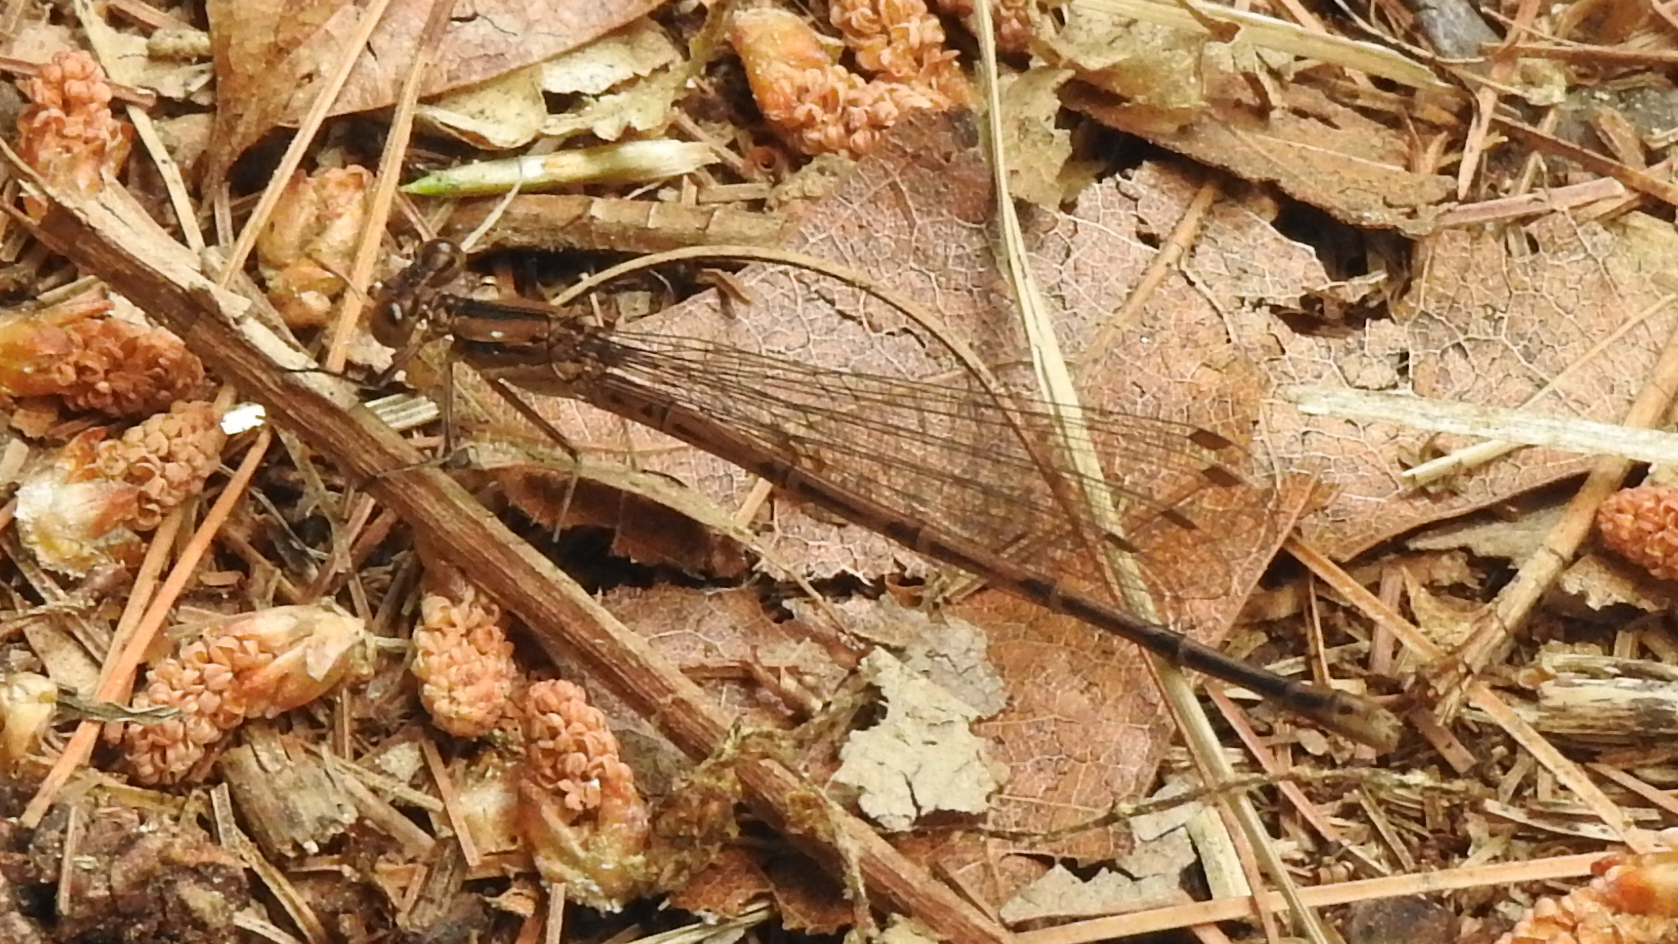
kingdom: Animalia
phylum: Arthropoda
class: Insecta
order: Odonata
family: Coenagrionidae
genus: Argia
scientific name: Argia fumipennis
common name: Variable dancer
